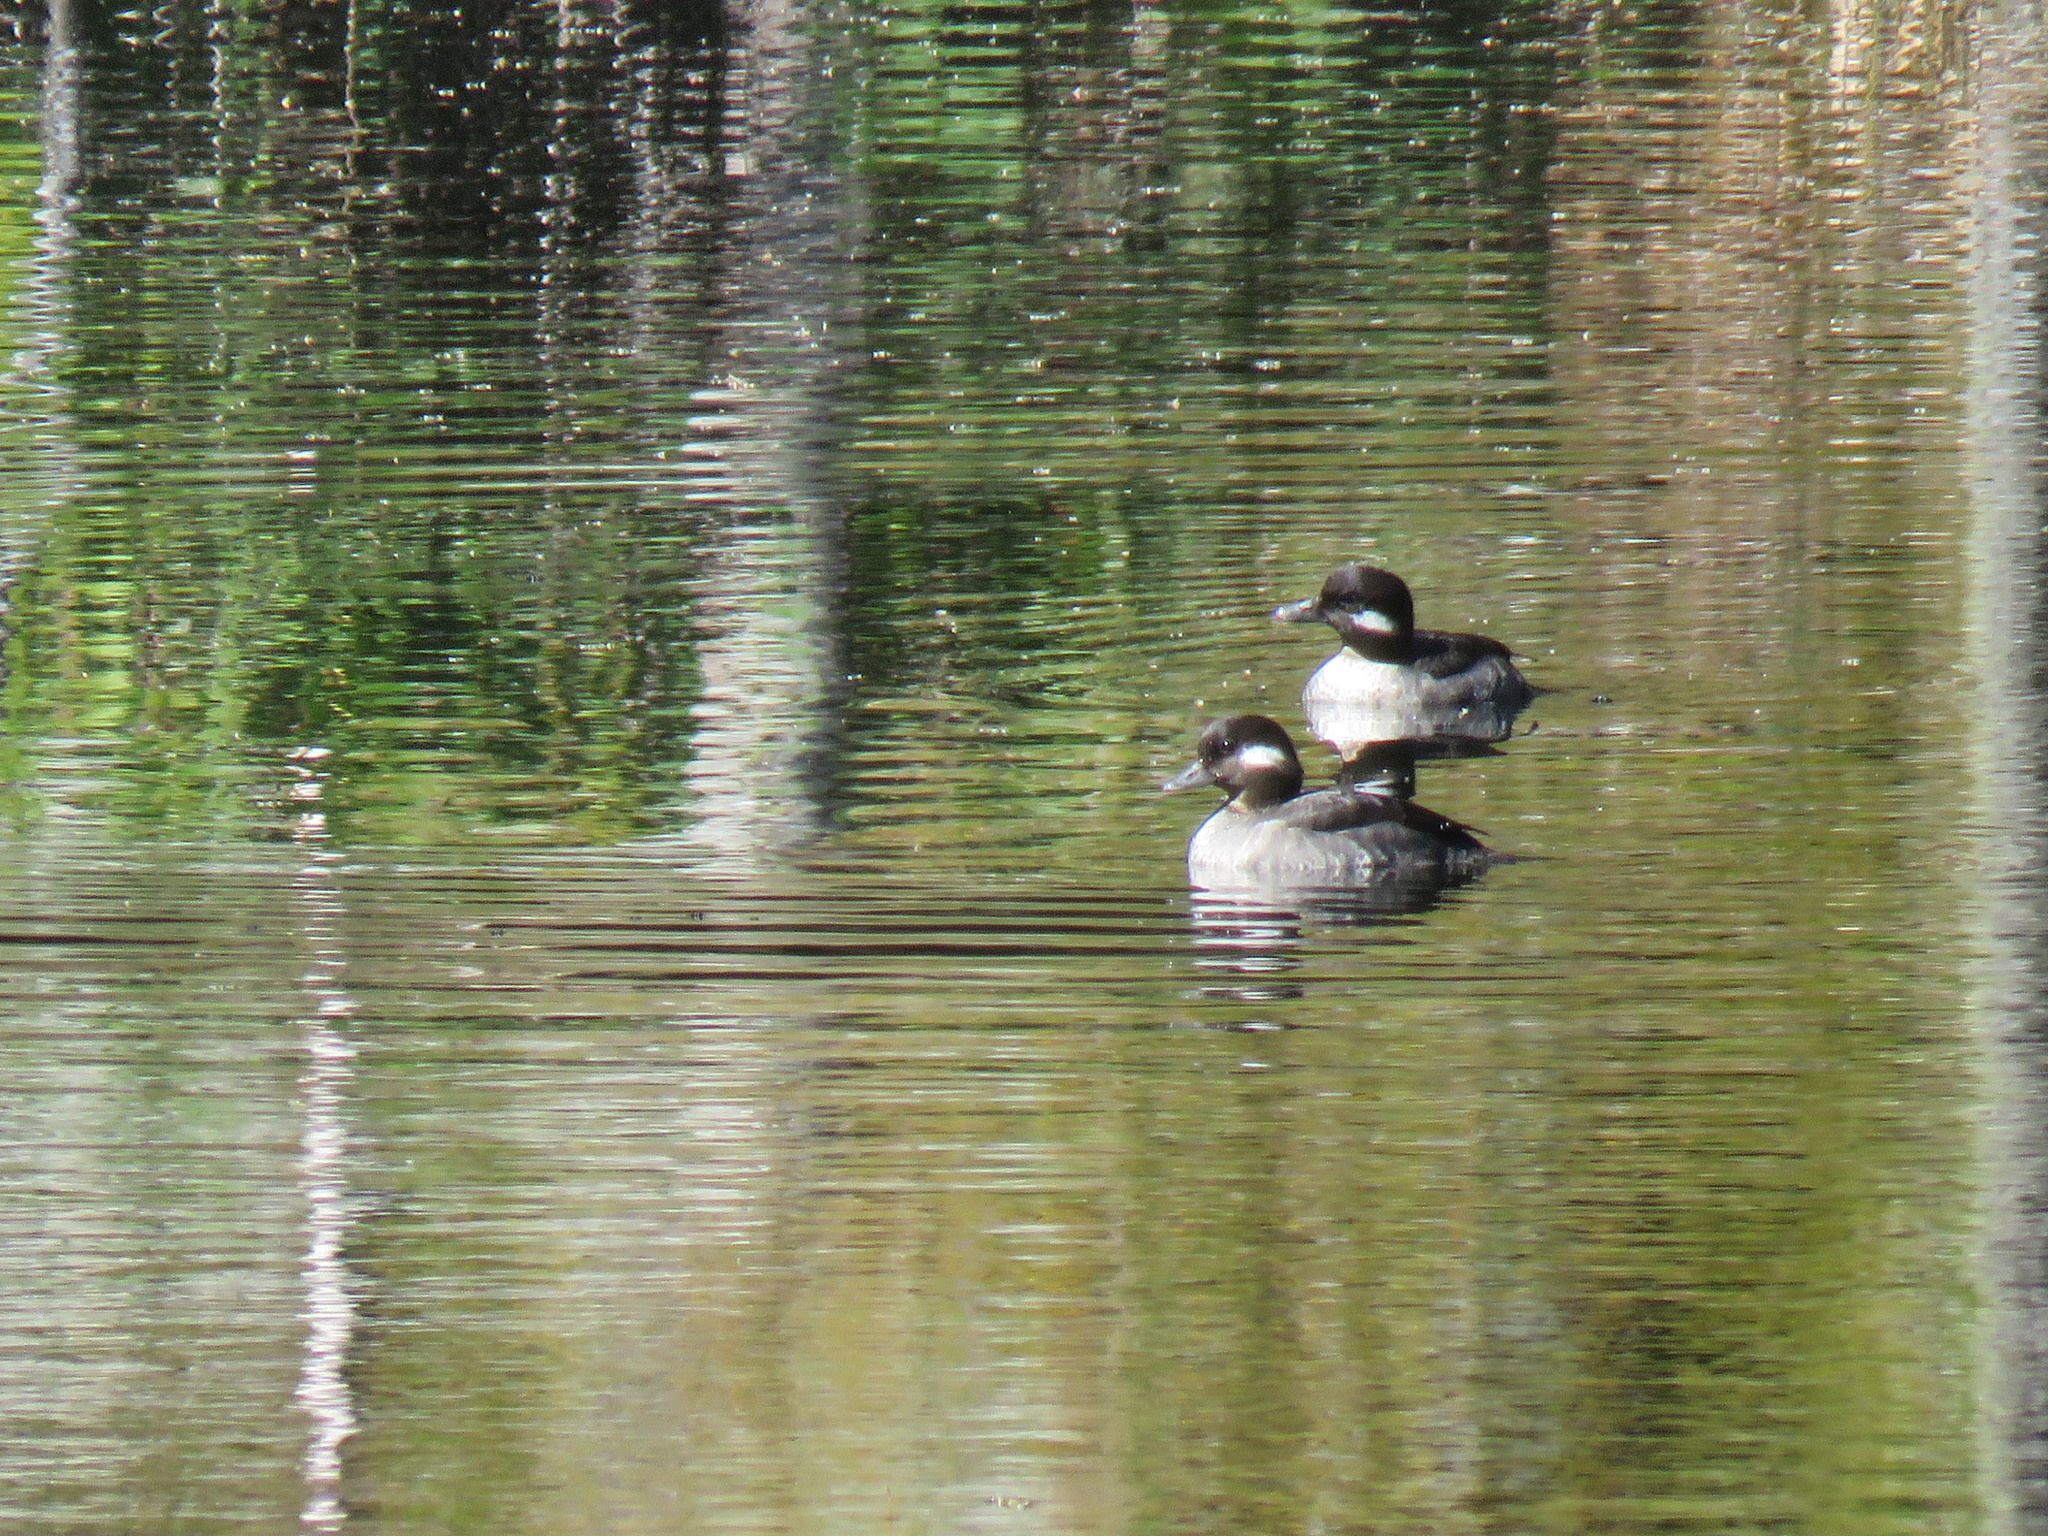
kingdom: Animalia
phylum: Chordata
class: Aves
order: Anseriformes
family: Anatidae
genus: Bucephala
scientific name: Bucephala albeola
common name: Bufflehead
